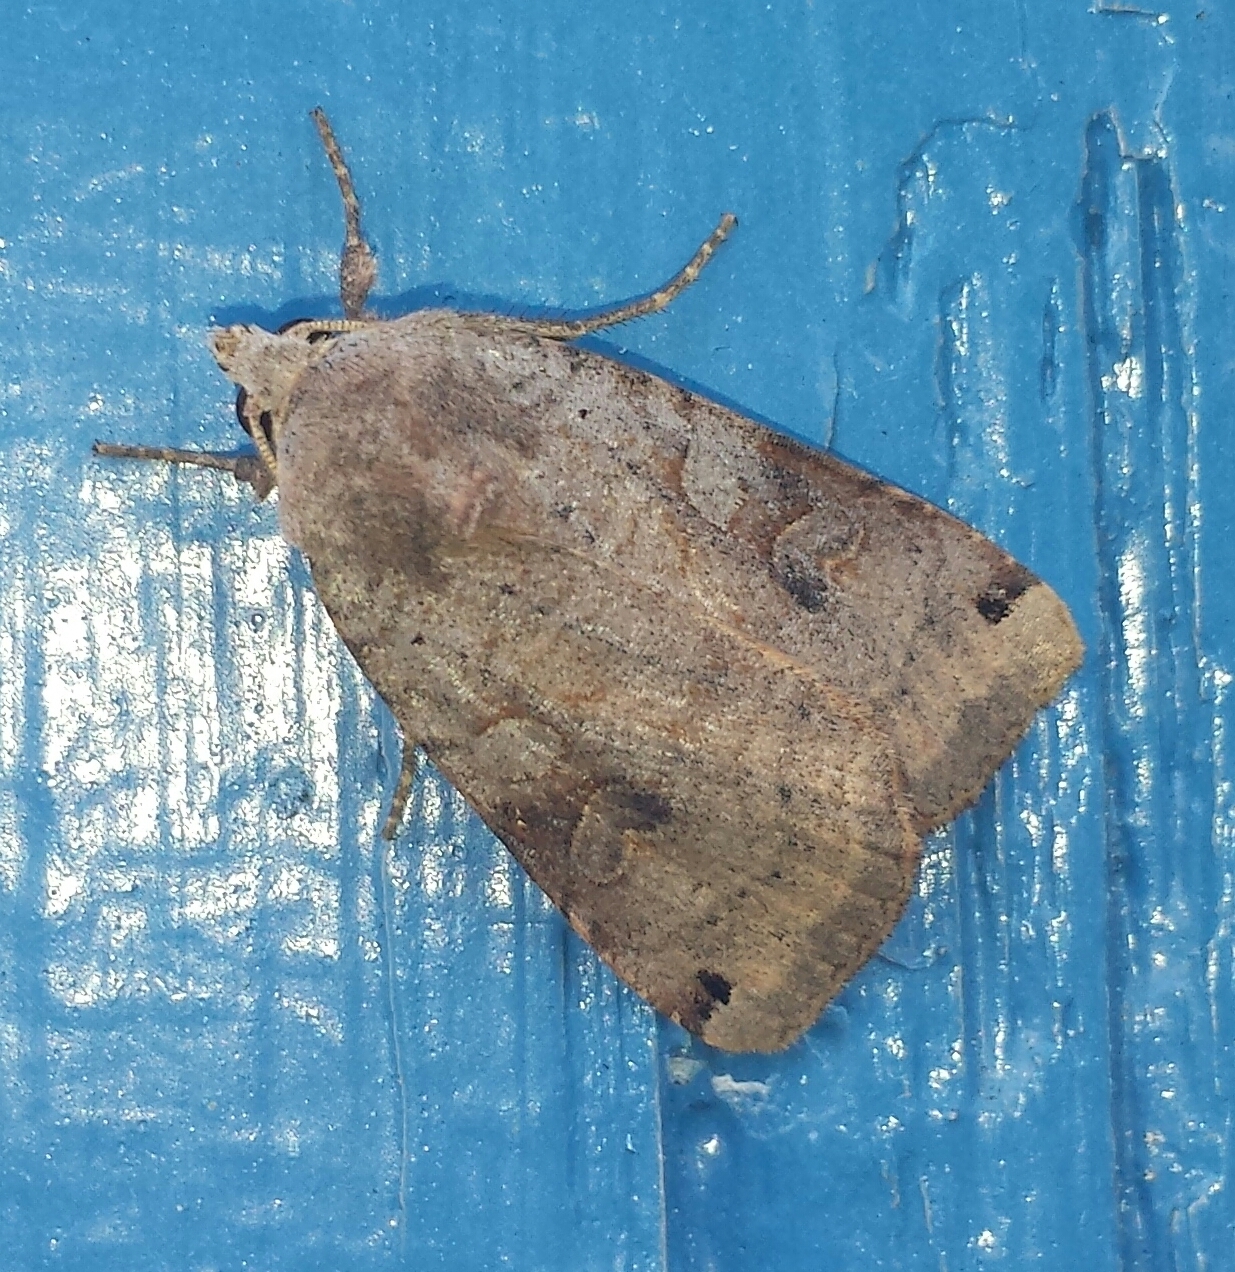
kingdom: Animalia
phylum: Arthropoda
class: Insecta
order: Lepidoptera
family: Noctuidae
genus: Noctua
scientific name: Noctua pronuba
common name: Large yellow underwing
